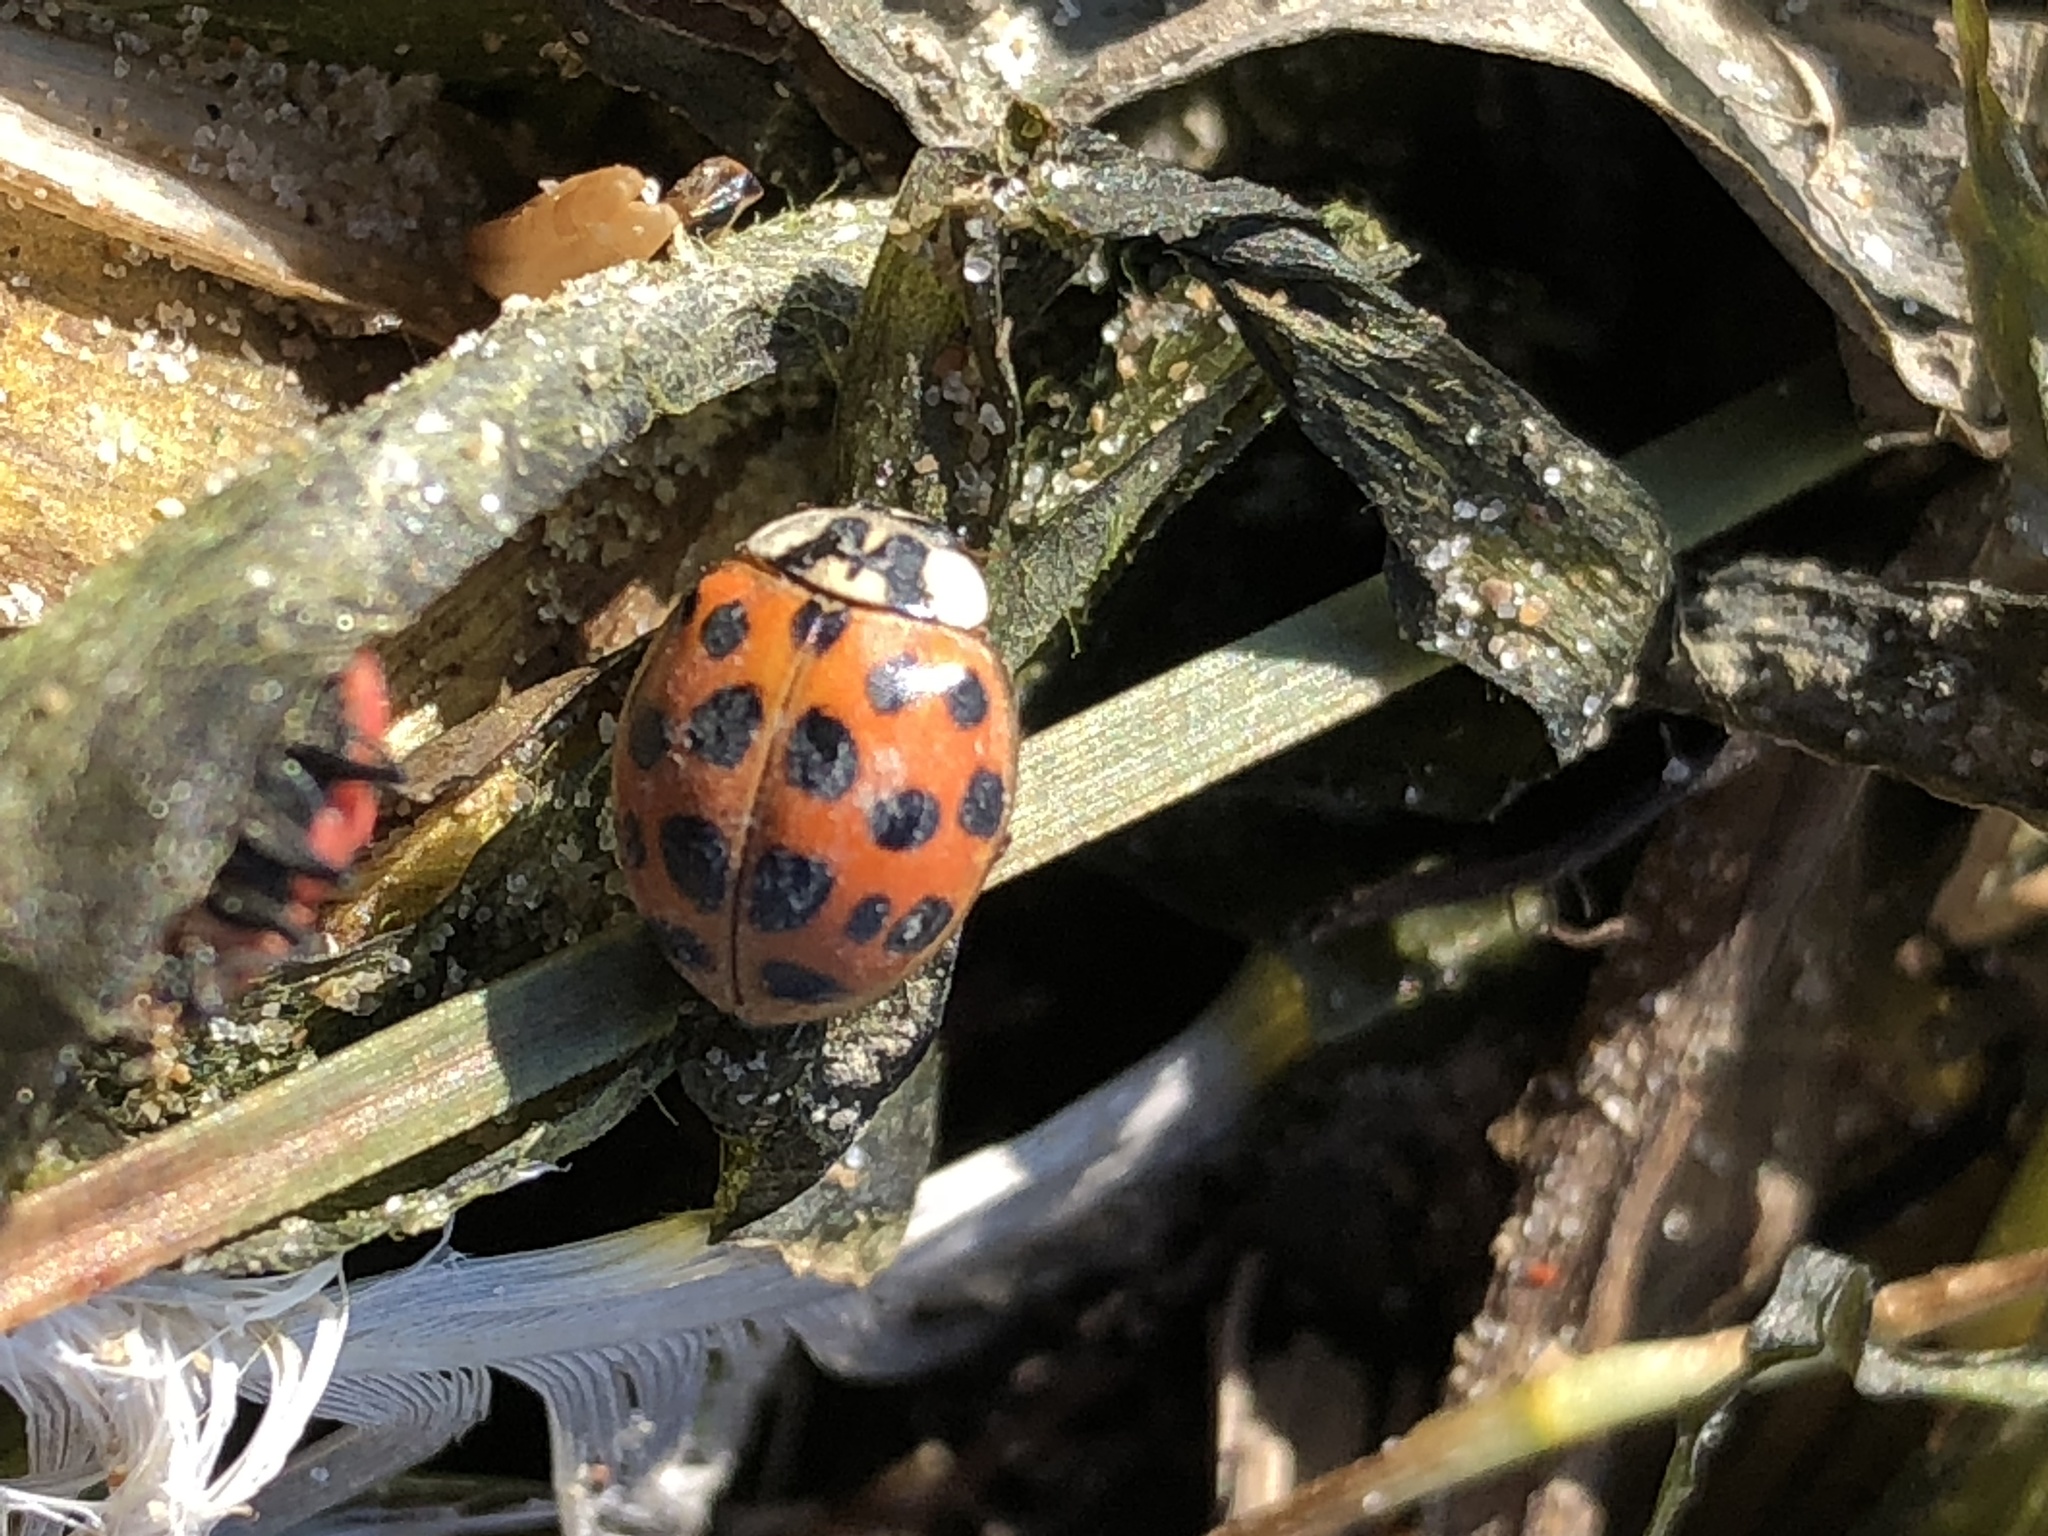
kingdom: Animalia
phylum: Arthropoda
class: Insecta
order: Coleoptera
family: Coccinellidae
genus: Harmonia
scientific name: Harmonia axyridis
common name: Harlequin ladybird
